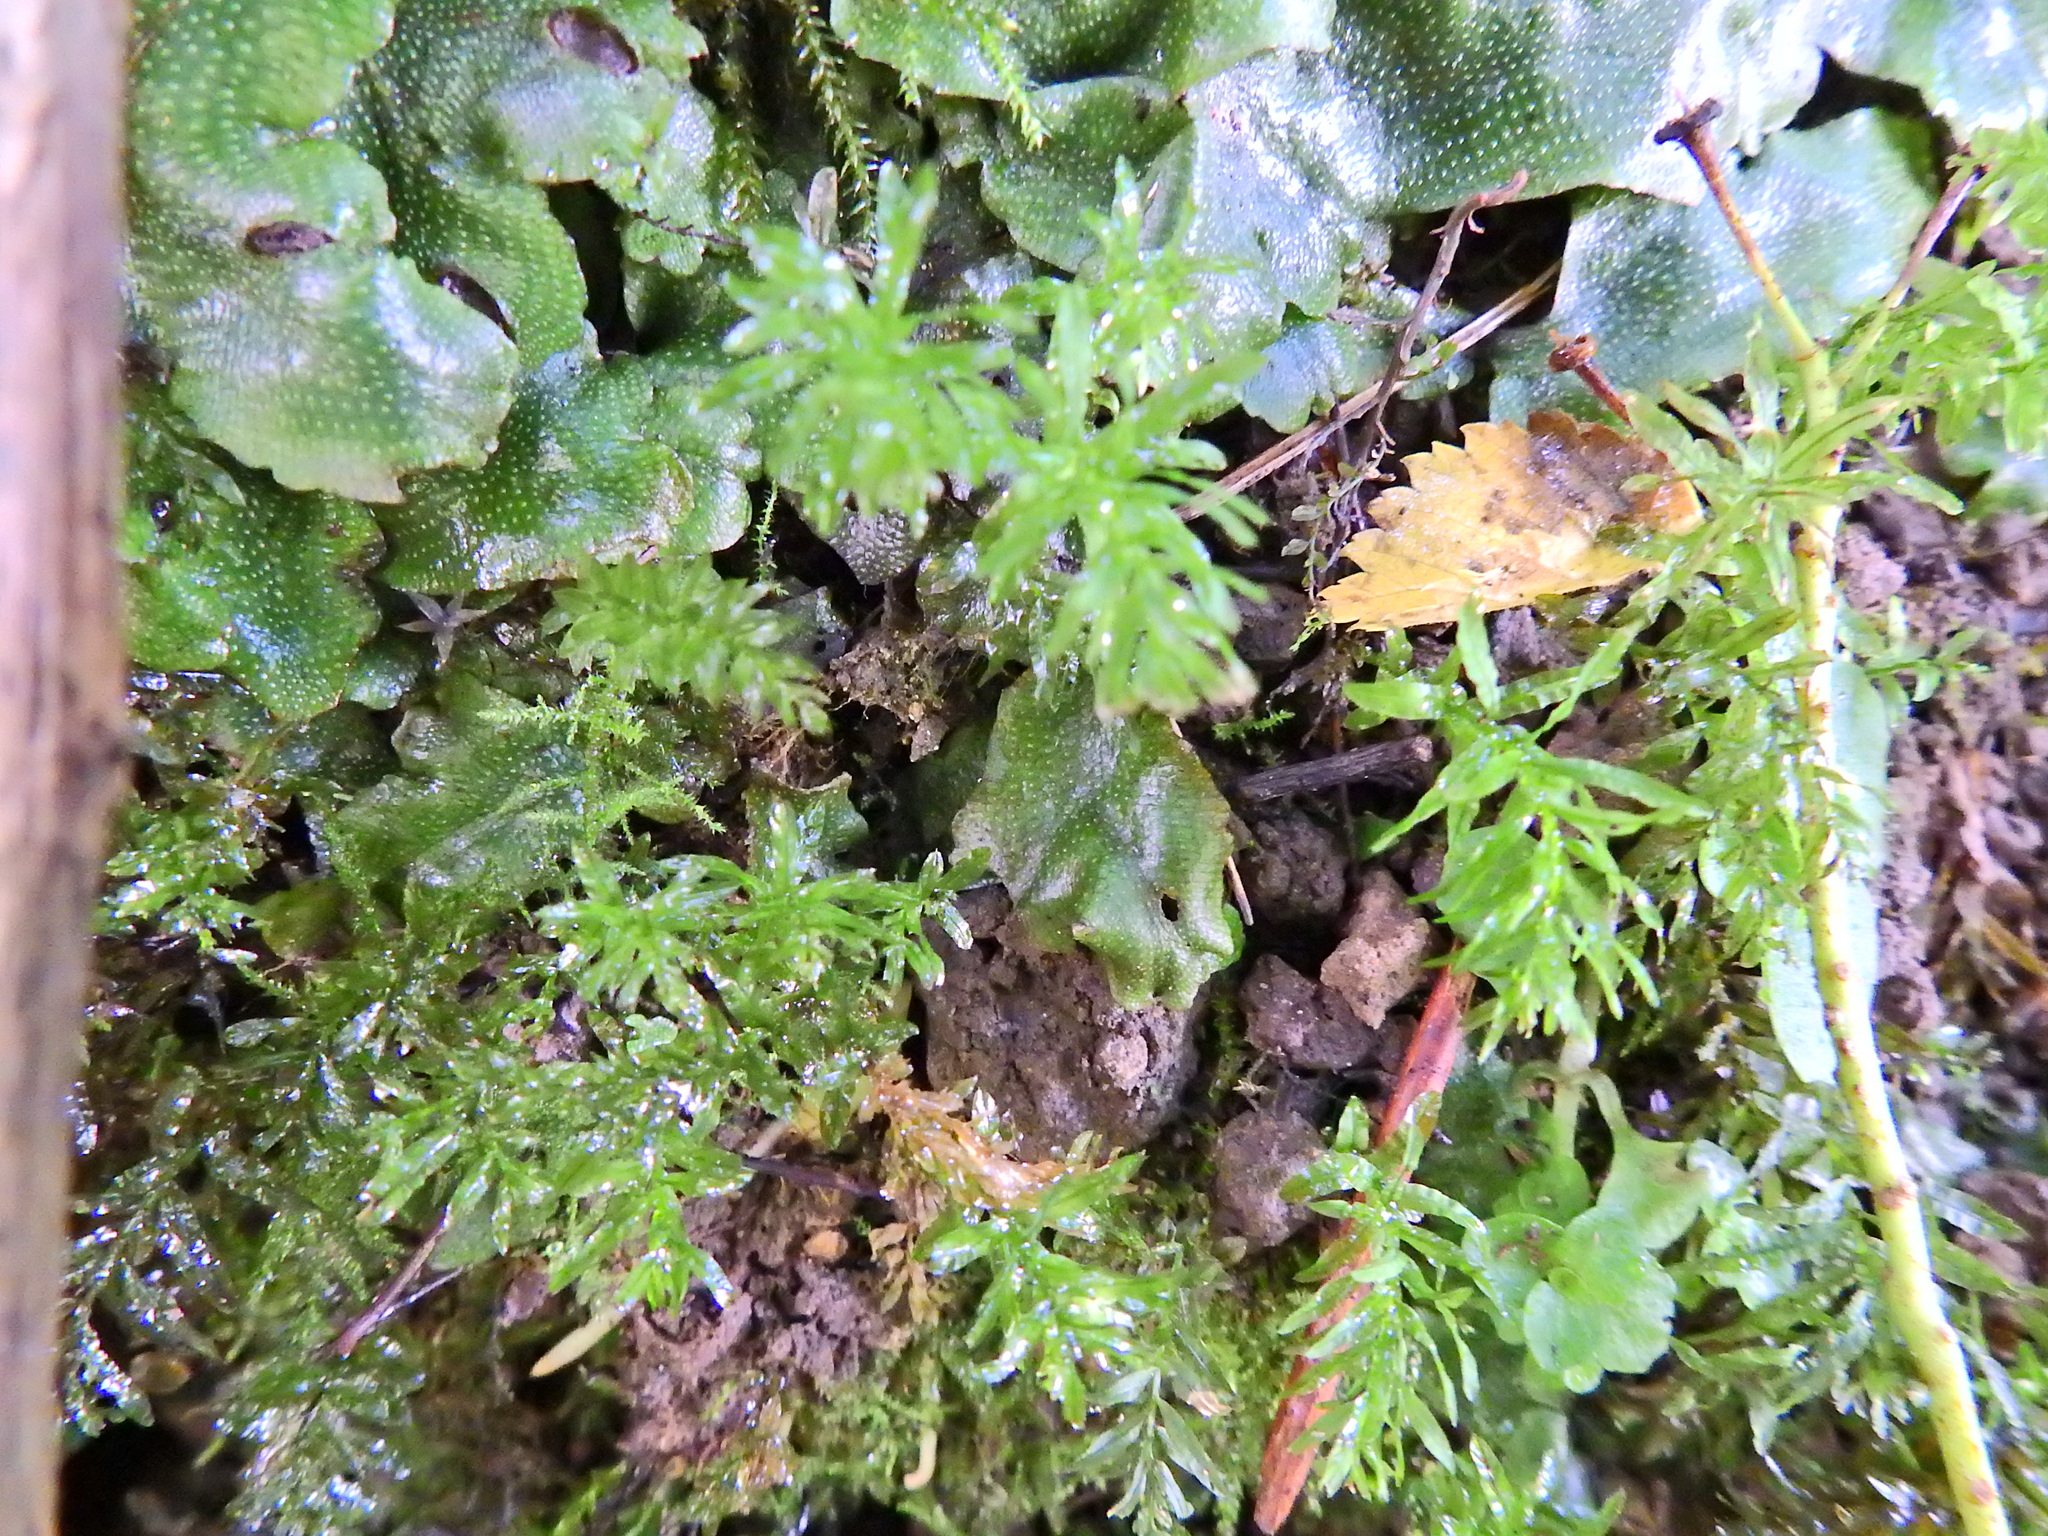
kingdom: Plantae
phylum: Bryophyta
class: Bryopsida
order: Bryales
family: Mniaceae
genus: Plagiomnium
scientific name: Plagiomnium undulatum
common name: Hart's-tongue thyme-moss
